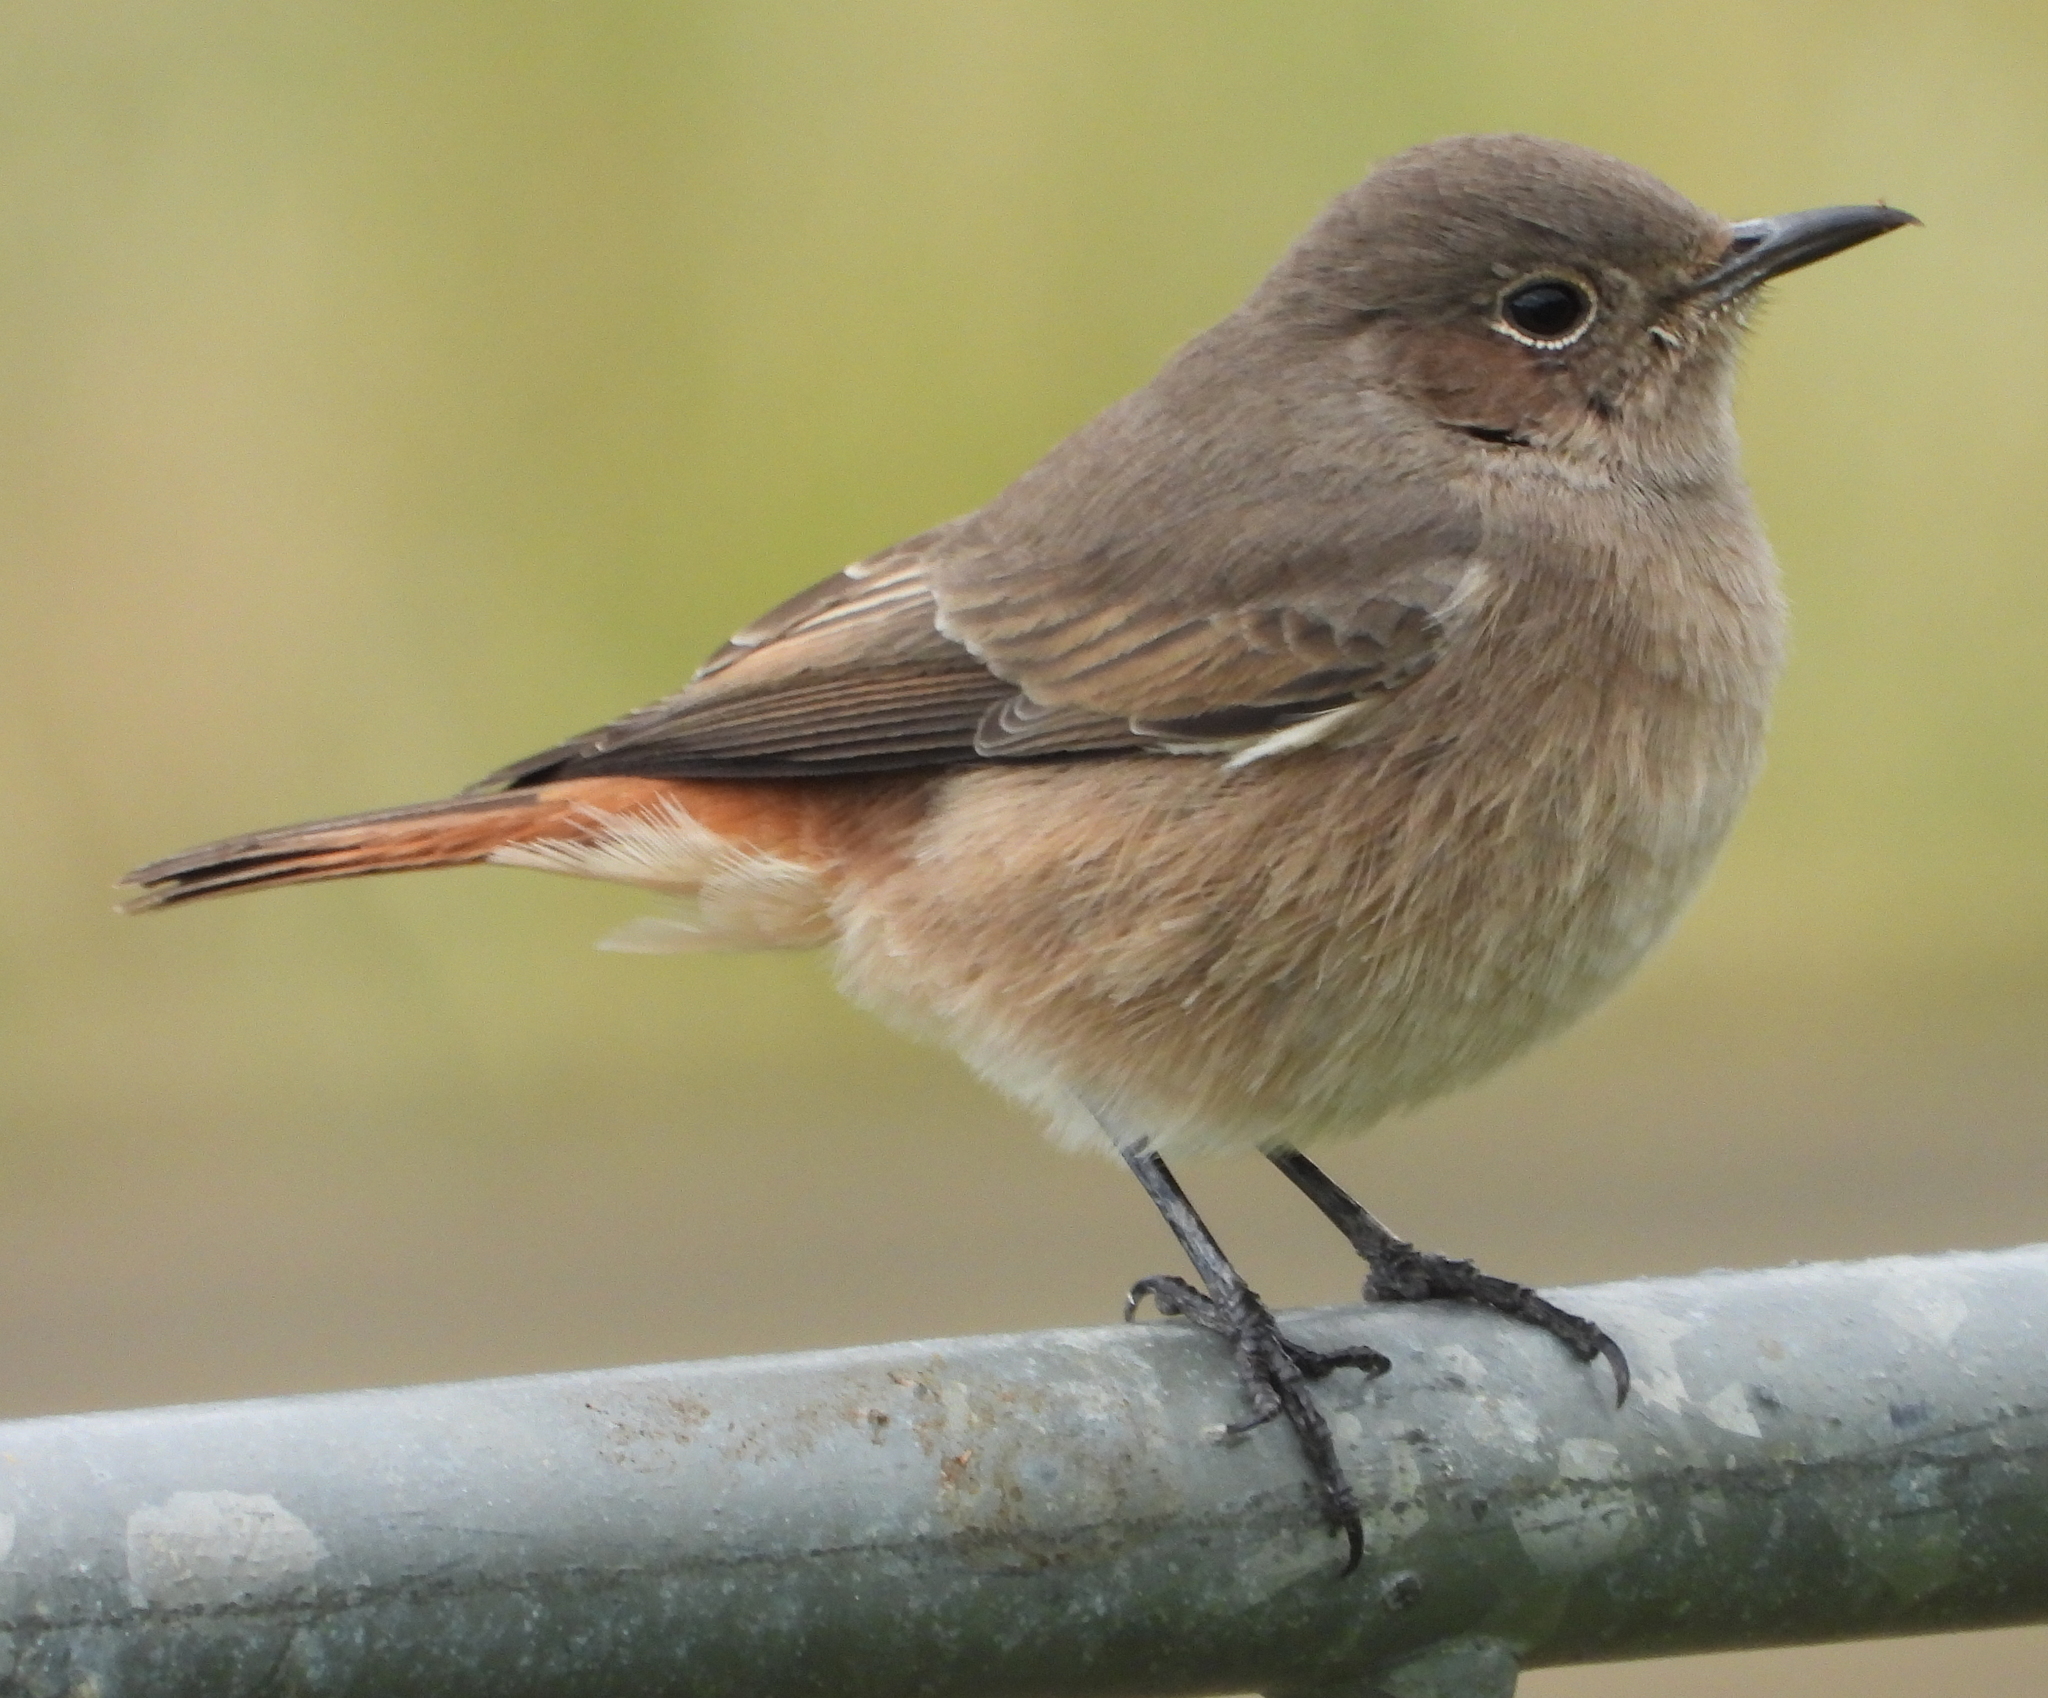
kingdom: Animalia
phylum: Chordata
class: Aves
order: Passeriformes
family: Muscicapidae
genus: Oenanthe
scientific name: Oenanthe familiaris
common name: Familiar chat
